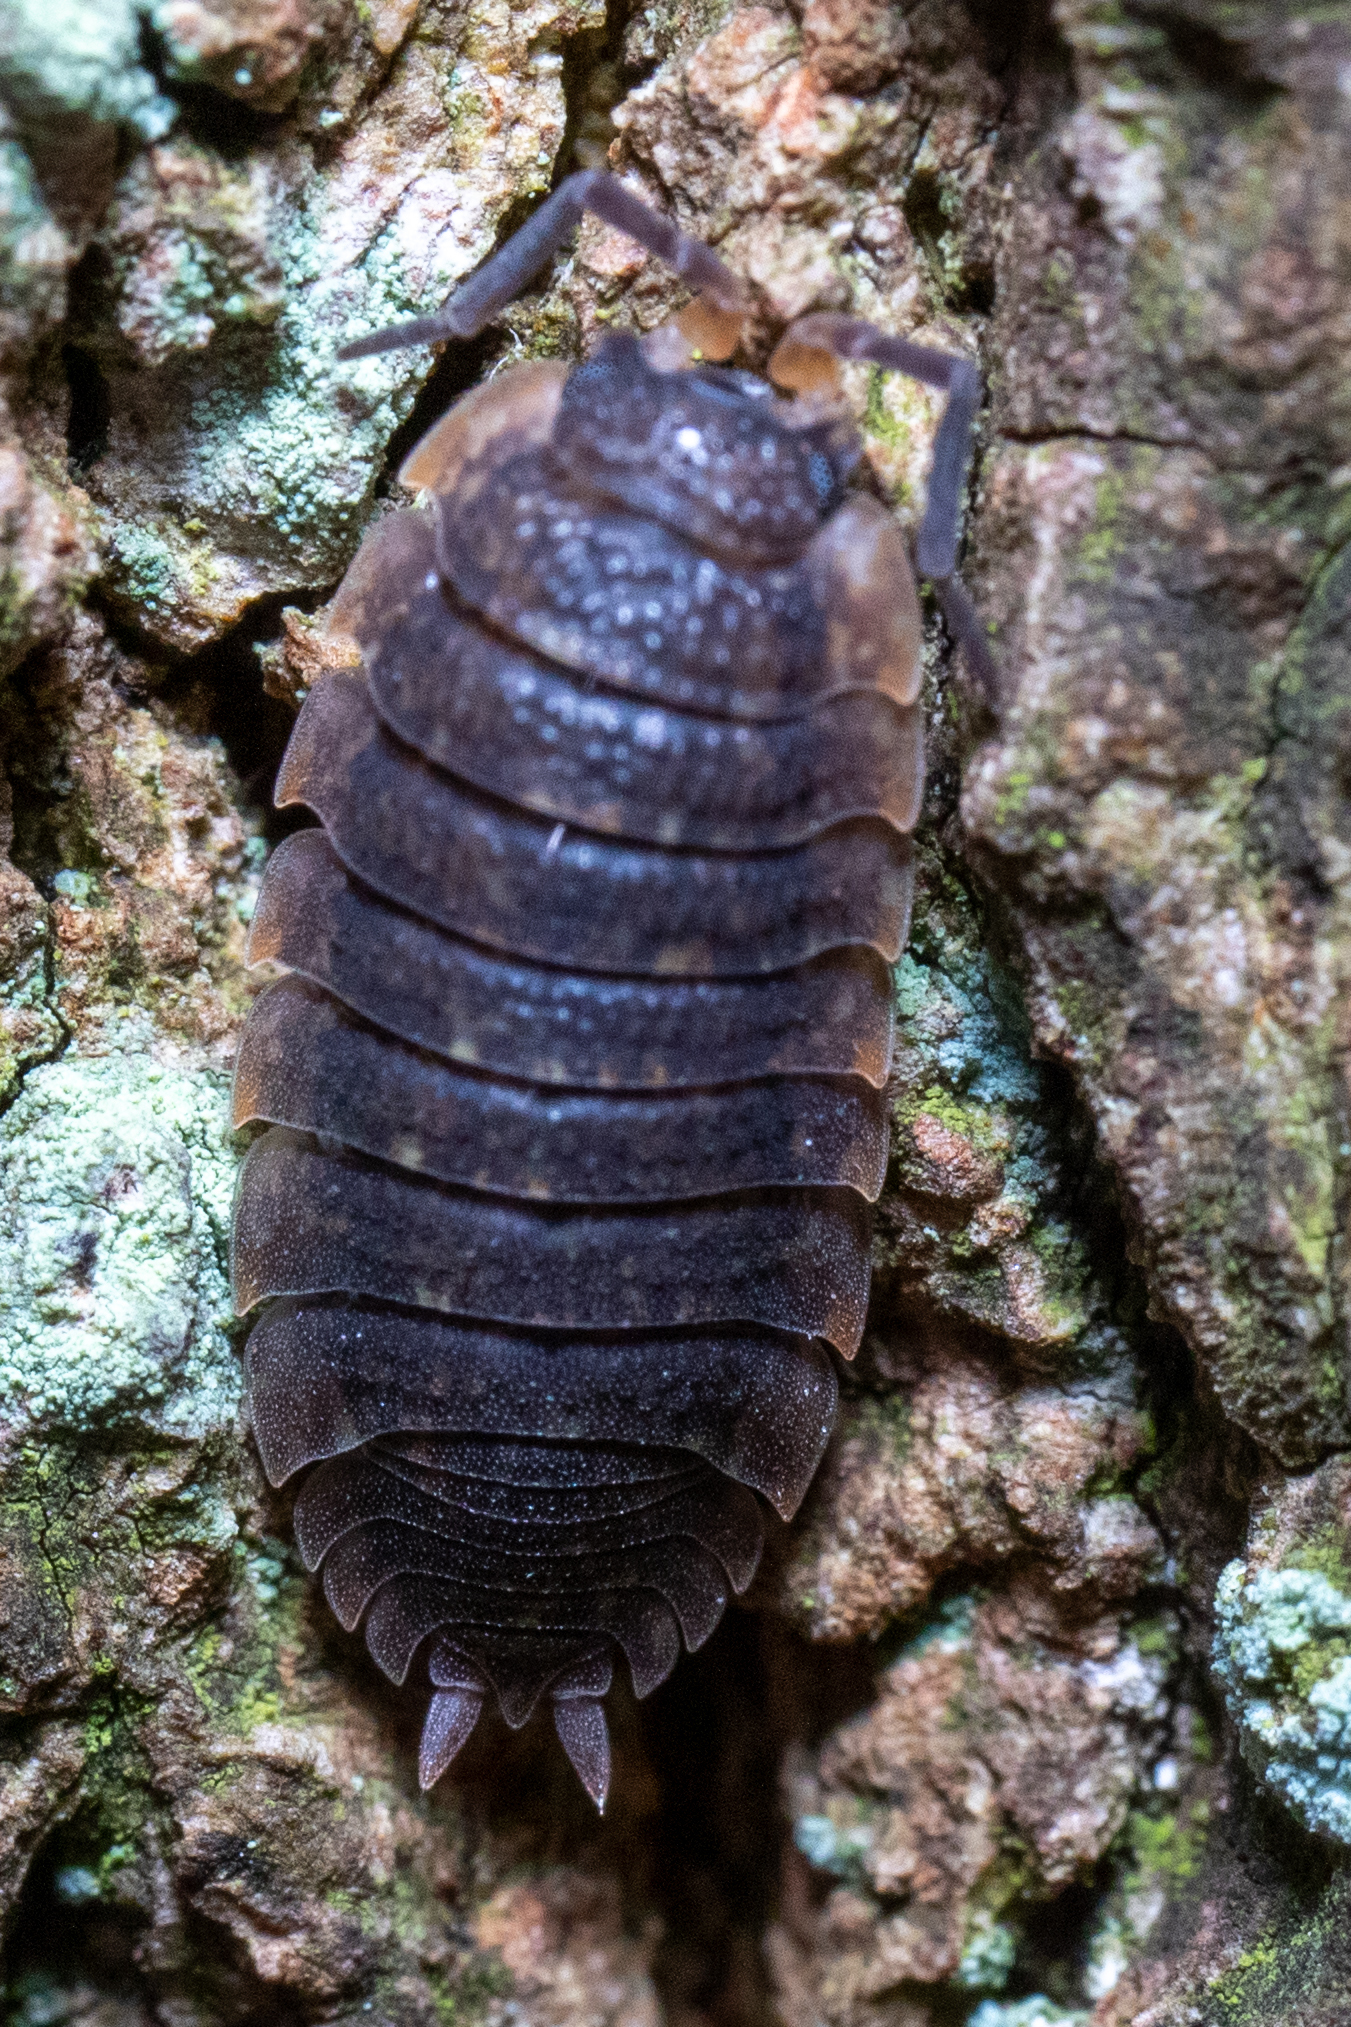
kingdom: Animalia
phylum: Arthropoda
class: Malacostraca
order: Isopoda
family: Porcellionidae
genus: Porcellio
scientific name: Porcellio scaber
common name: Common rough woodlouse
